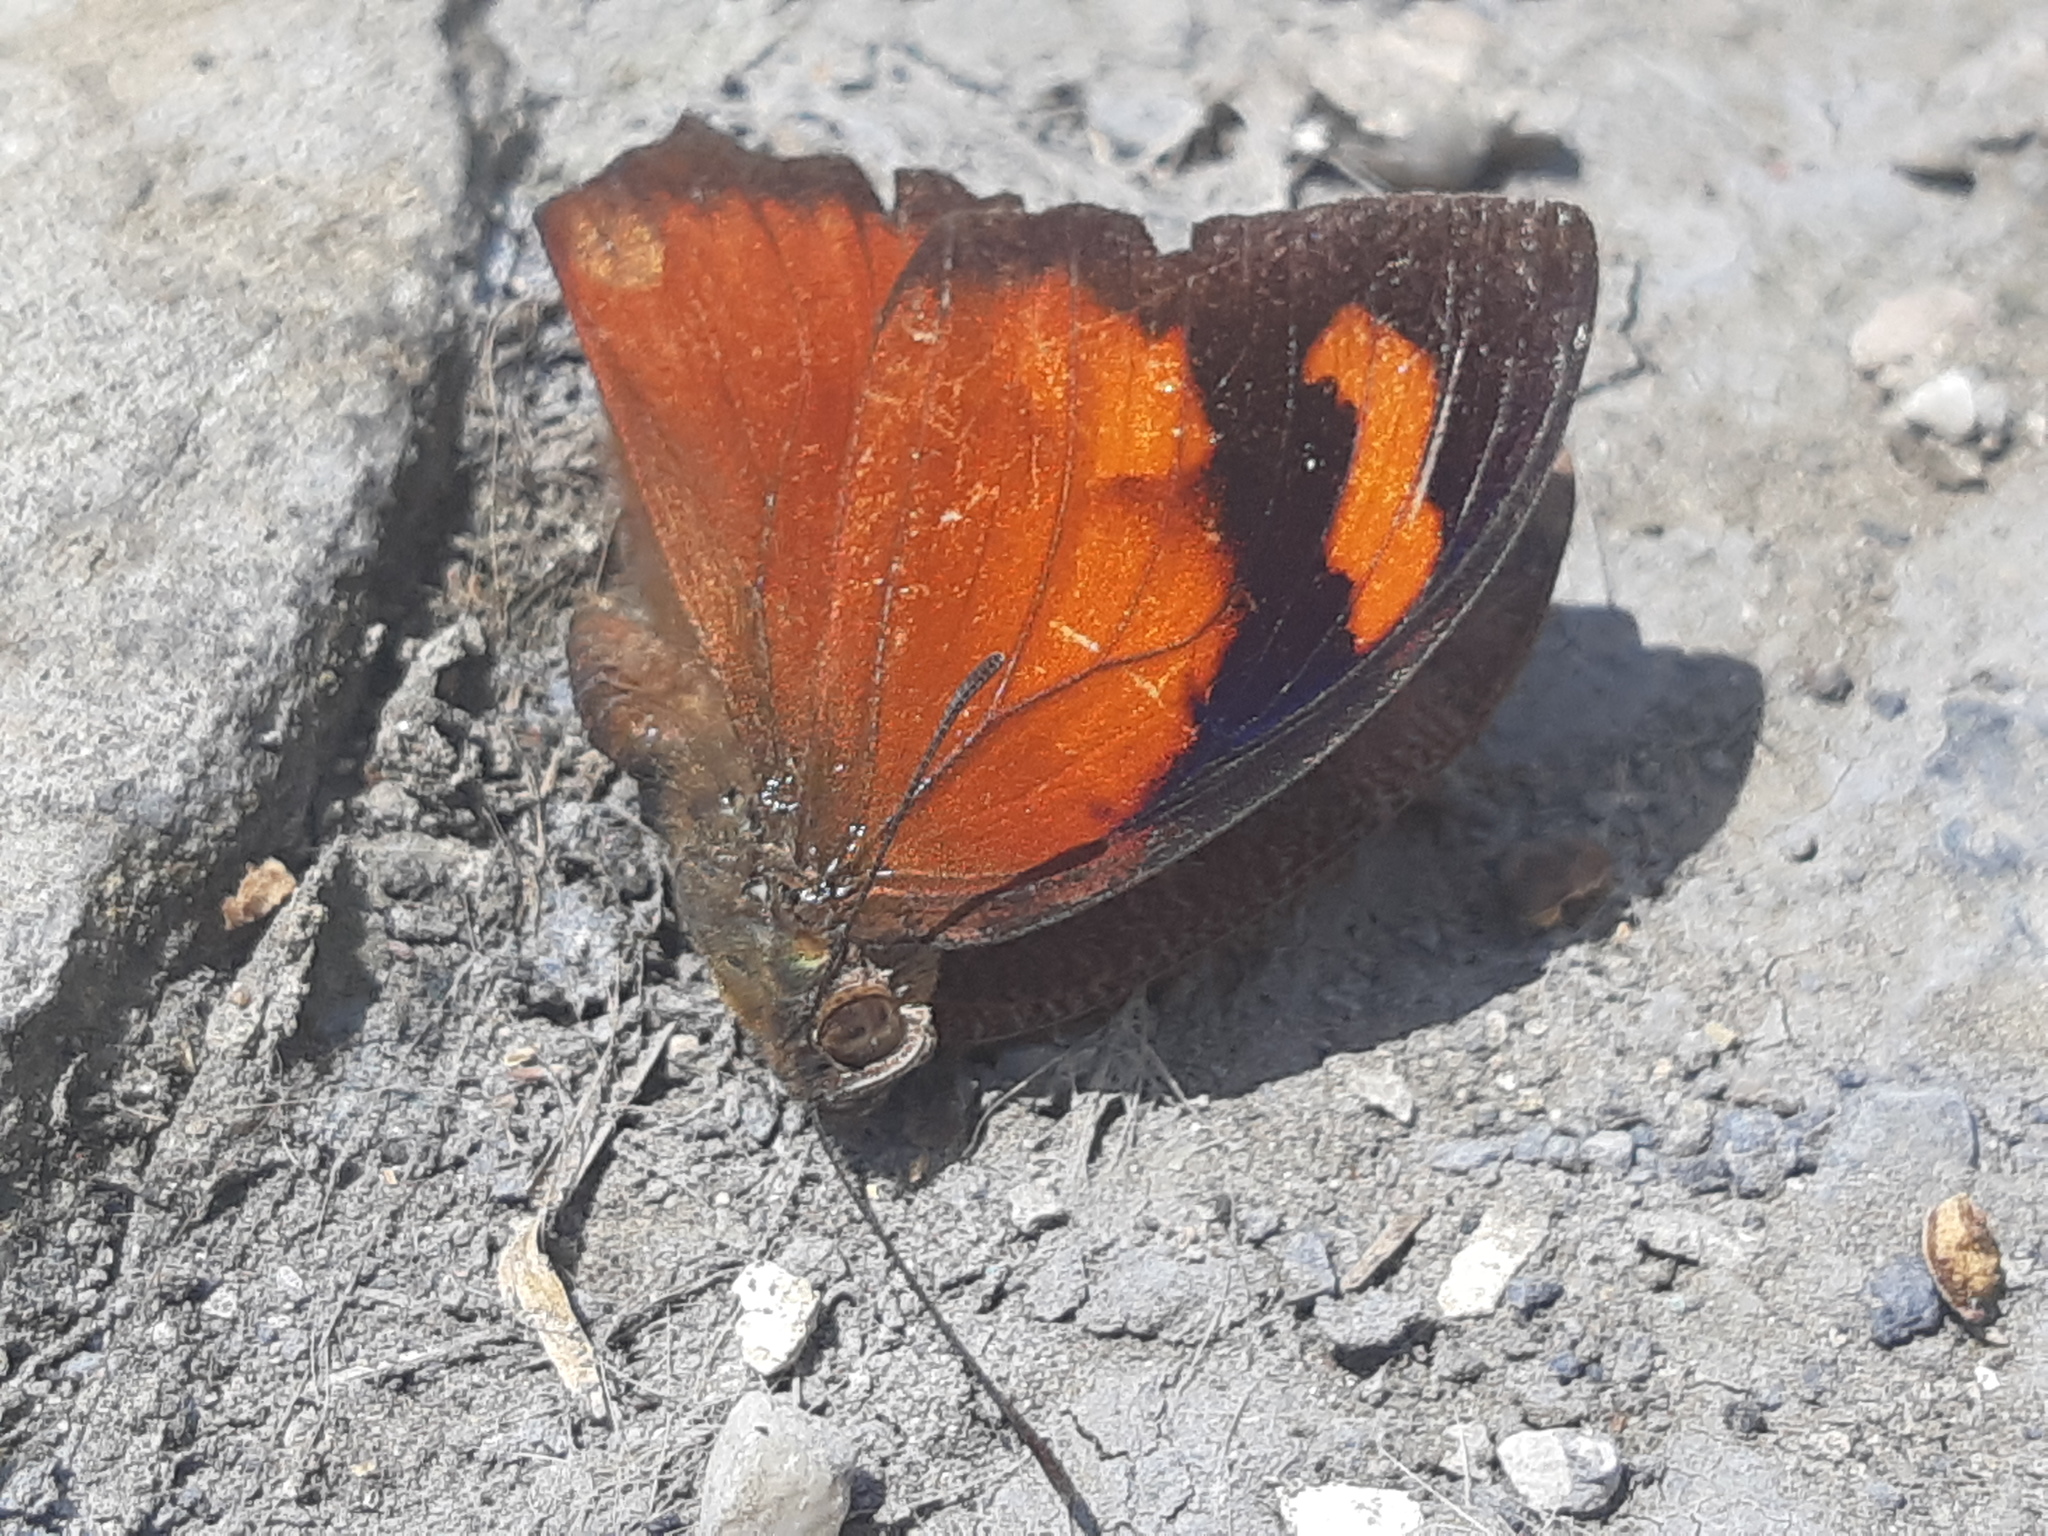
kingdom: Animalia
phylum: Arthropoda
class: Insecta
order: Lepidoptera
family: Nymphalidae
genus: Anaea
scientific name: Anaea ryphea
